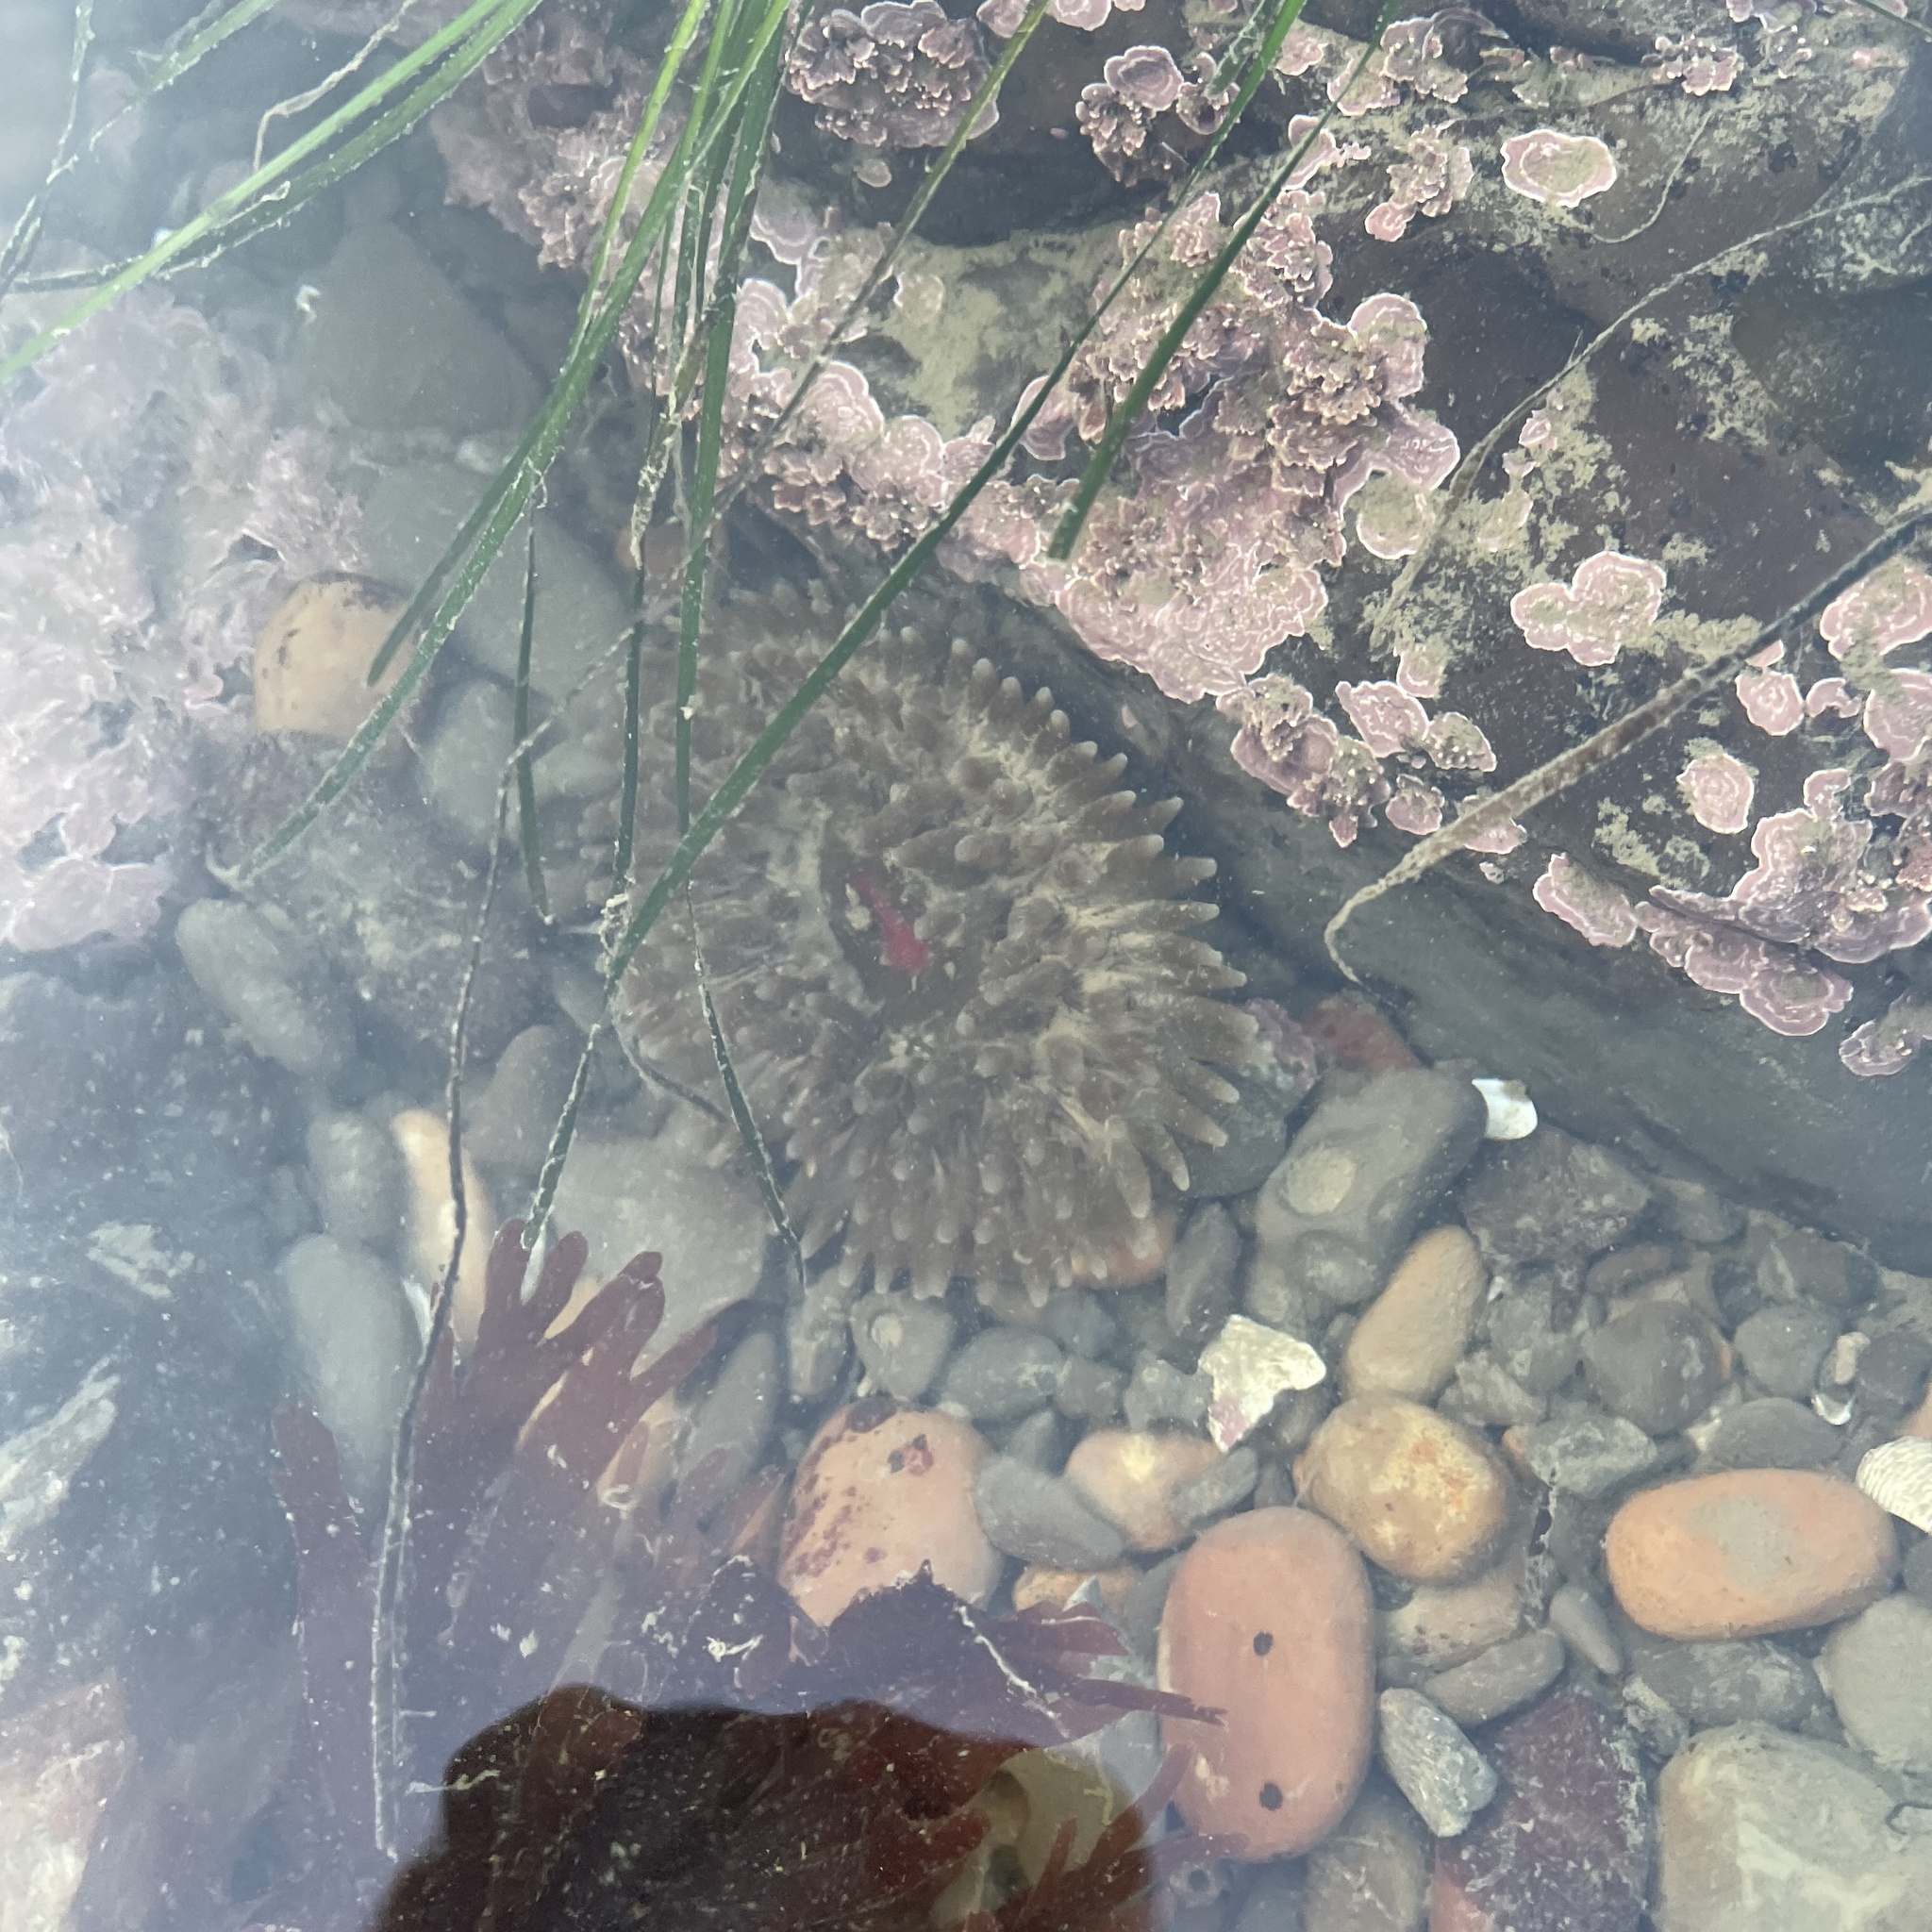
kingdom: Animalia
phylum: Cnidaria
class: Anthozoa
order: Actiniaria
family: Actiniidae
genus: Urticina
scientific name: Urticina clandestina
